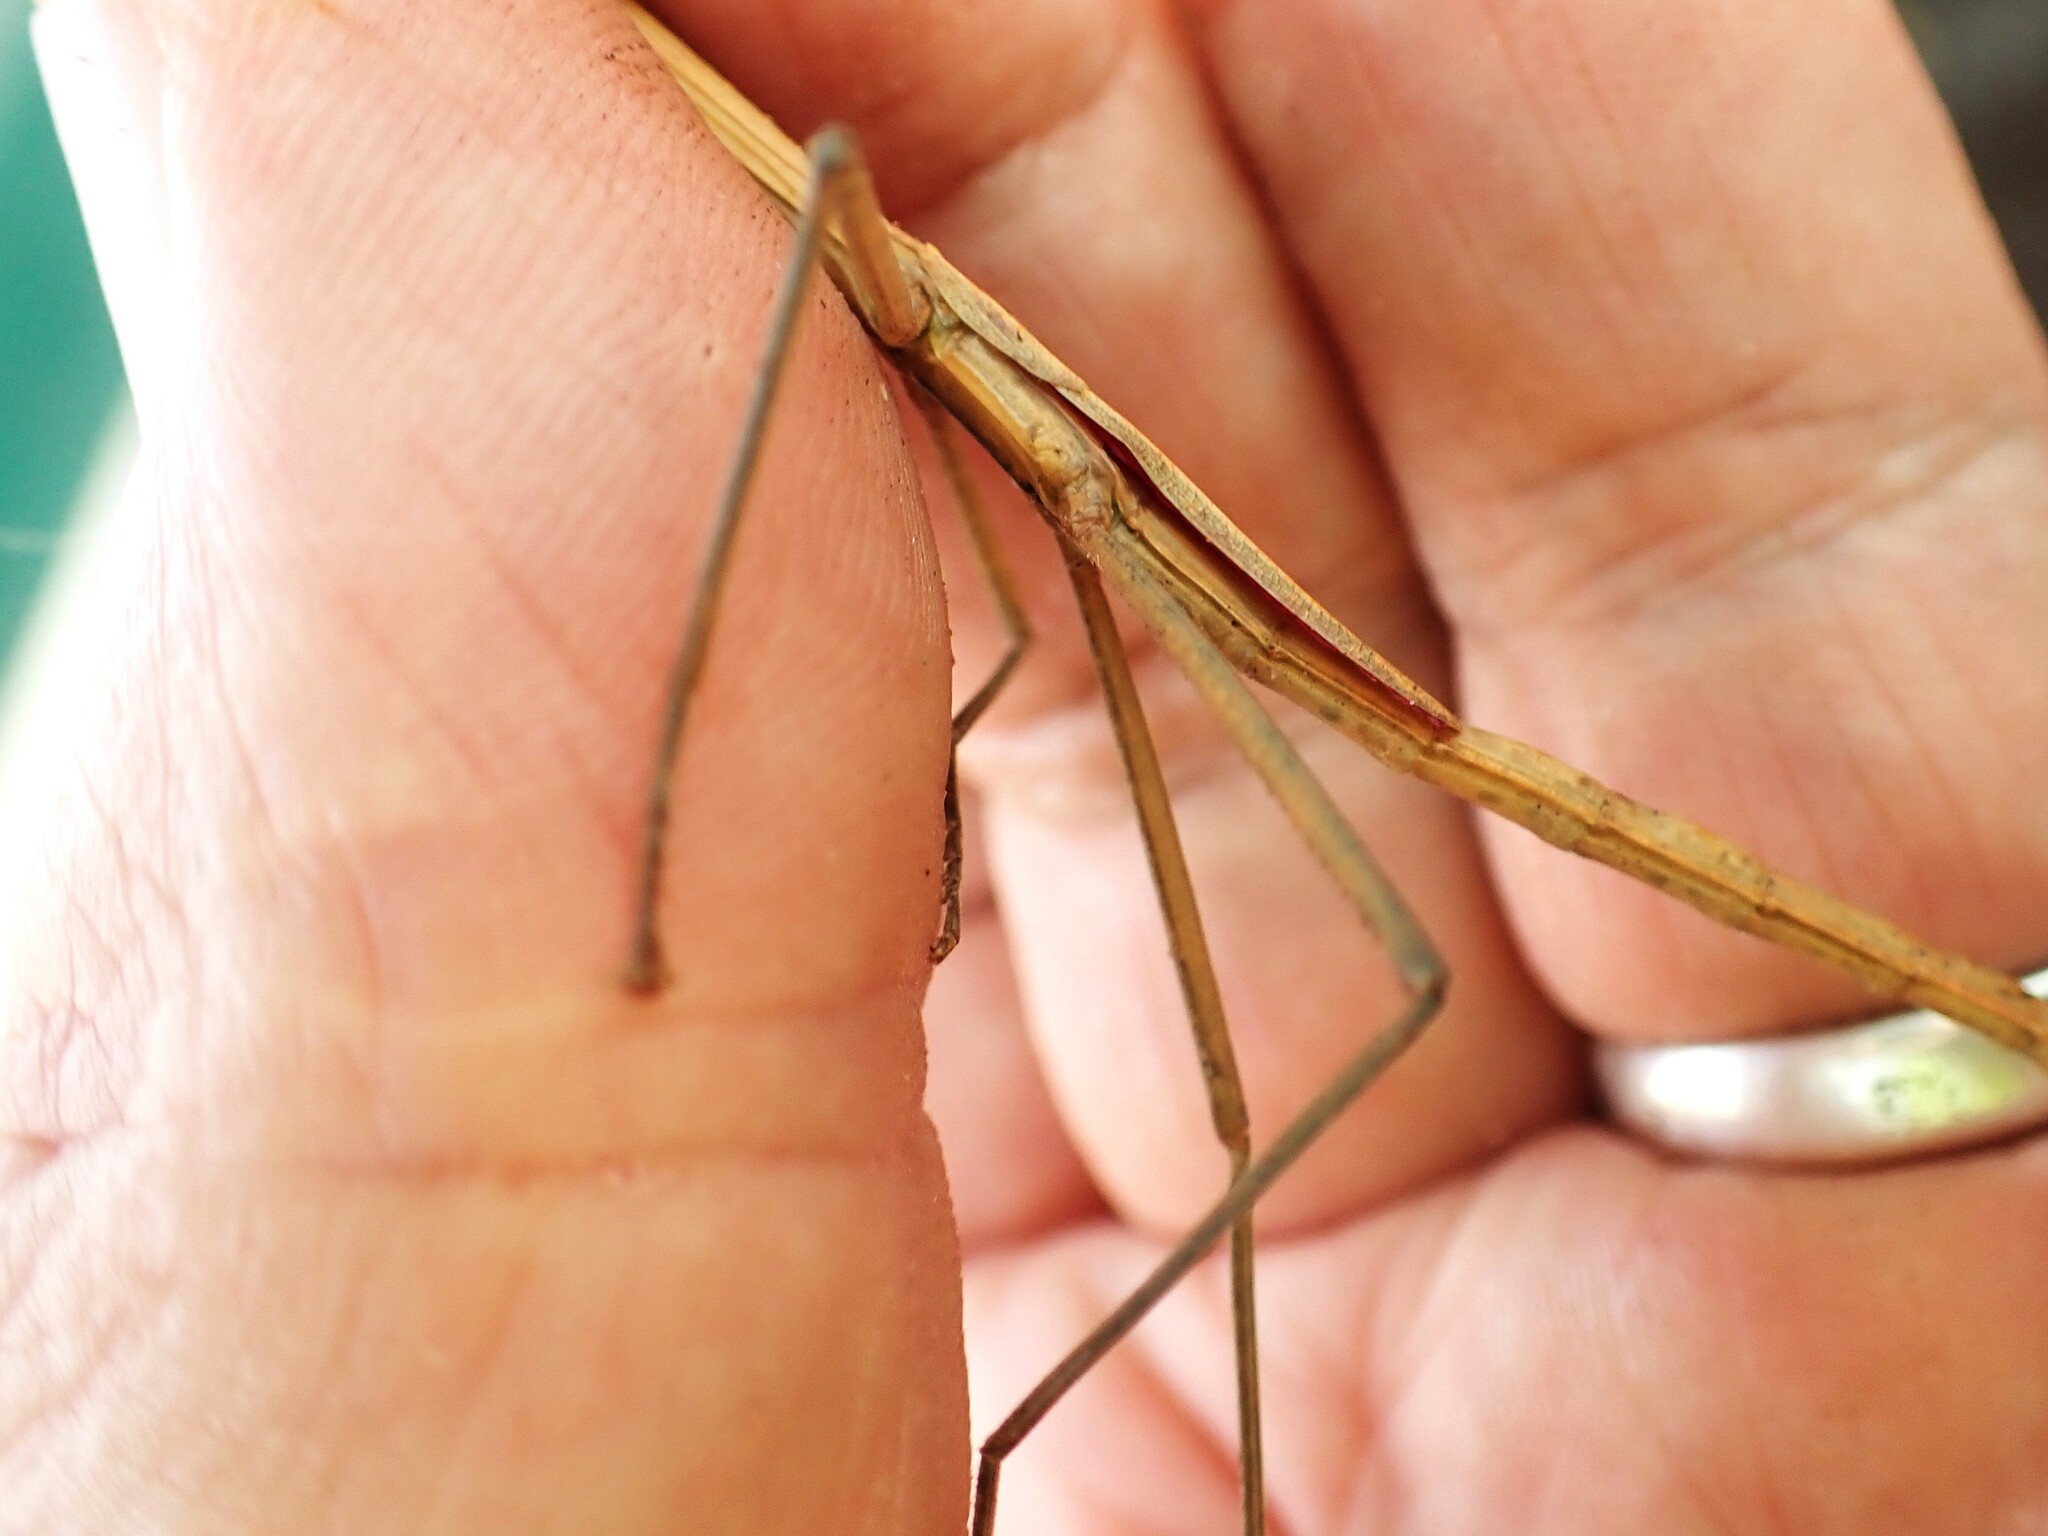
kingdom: Animalia
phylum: Arthropoda
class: Insecta
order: Phasmida
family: Phasmatidae
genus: Graeffea
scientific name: Graeffea crouanii
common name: Coconut stick insect
